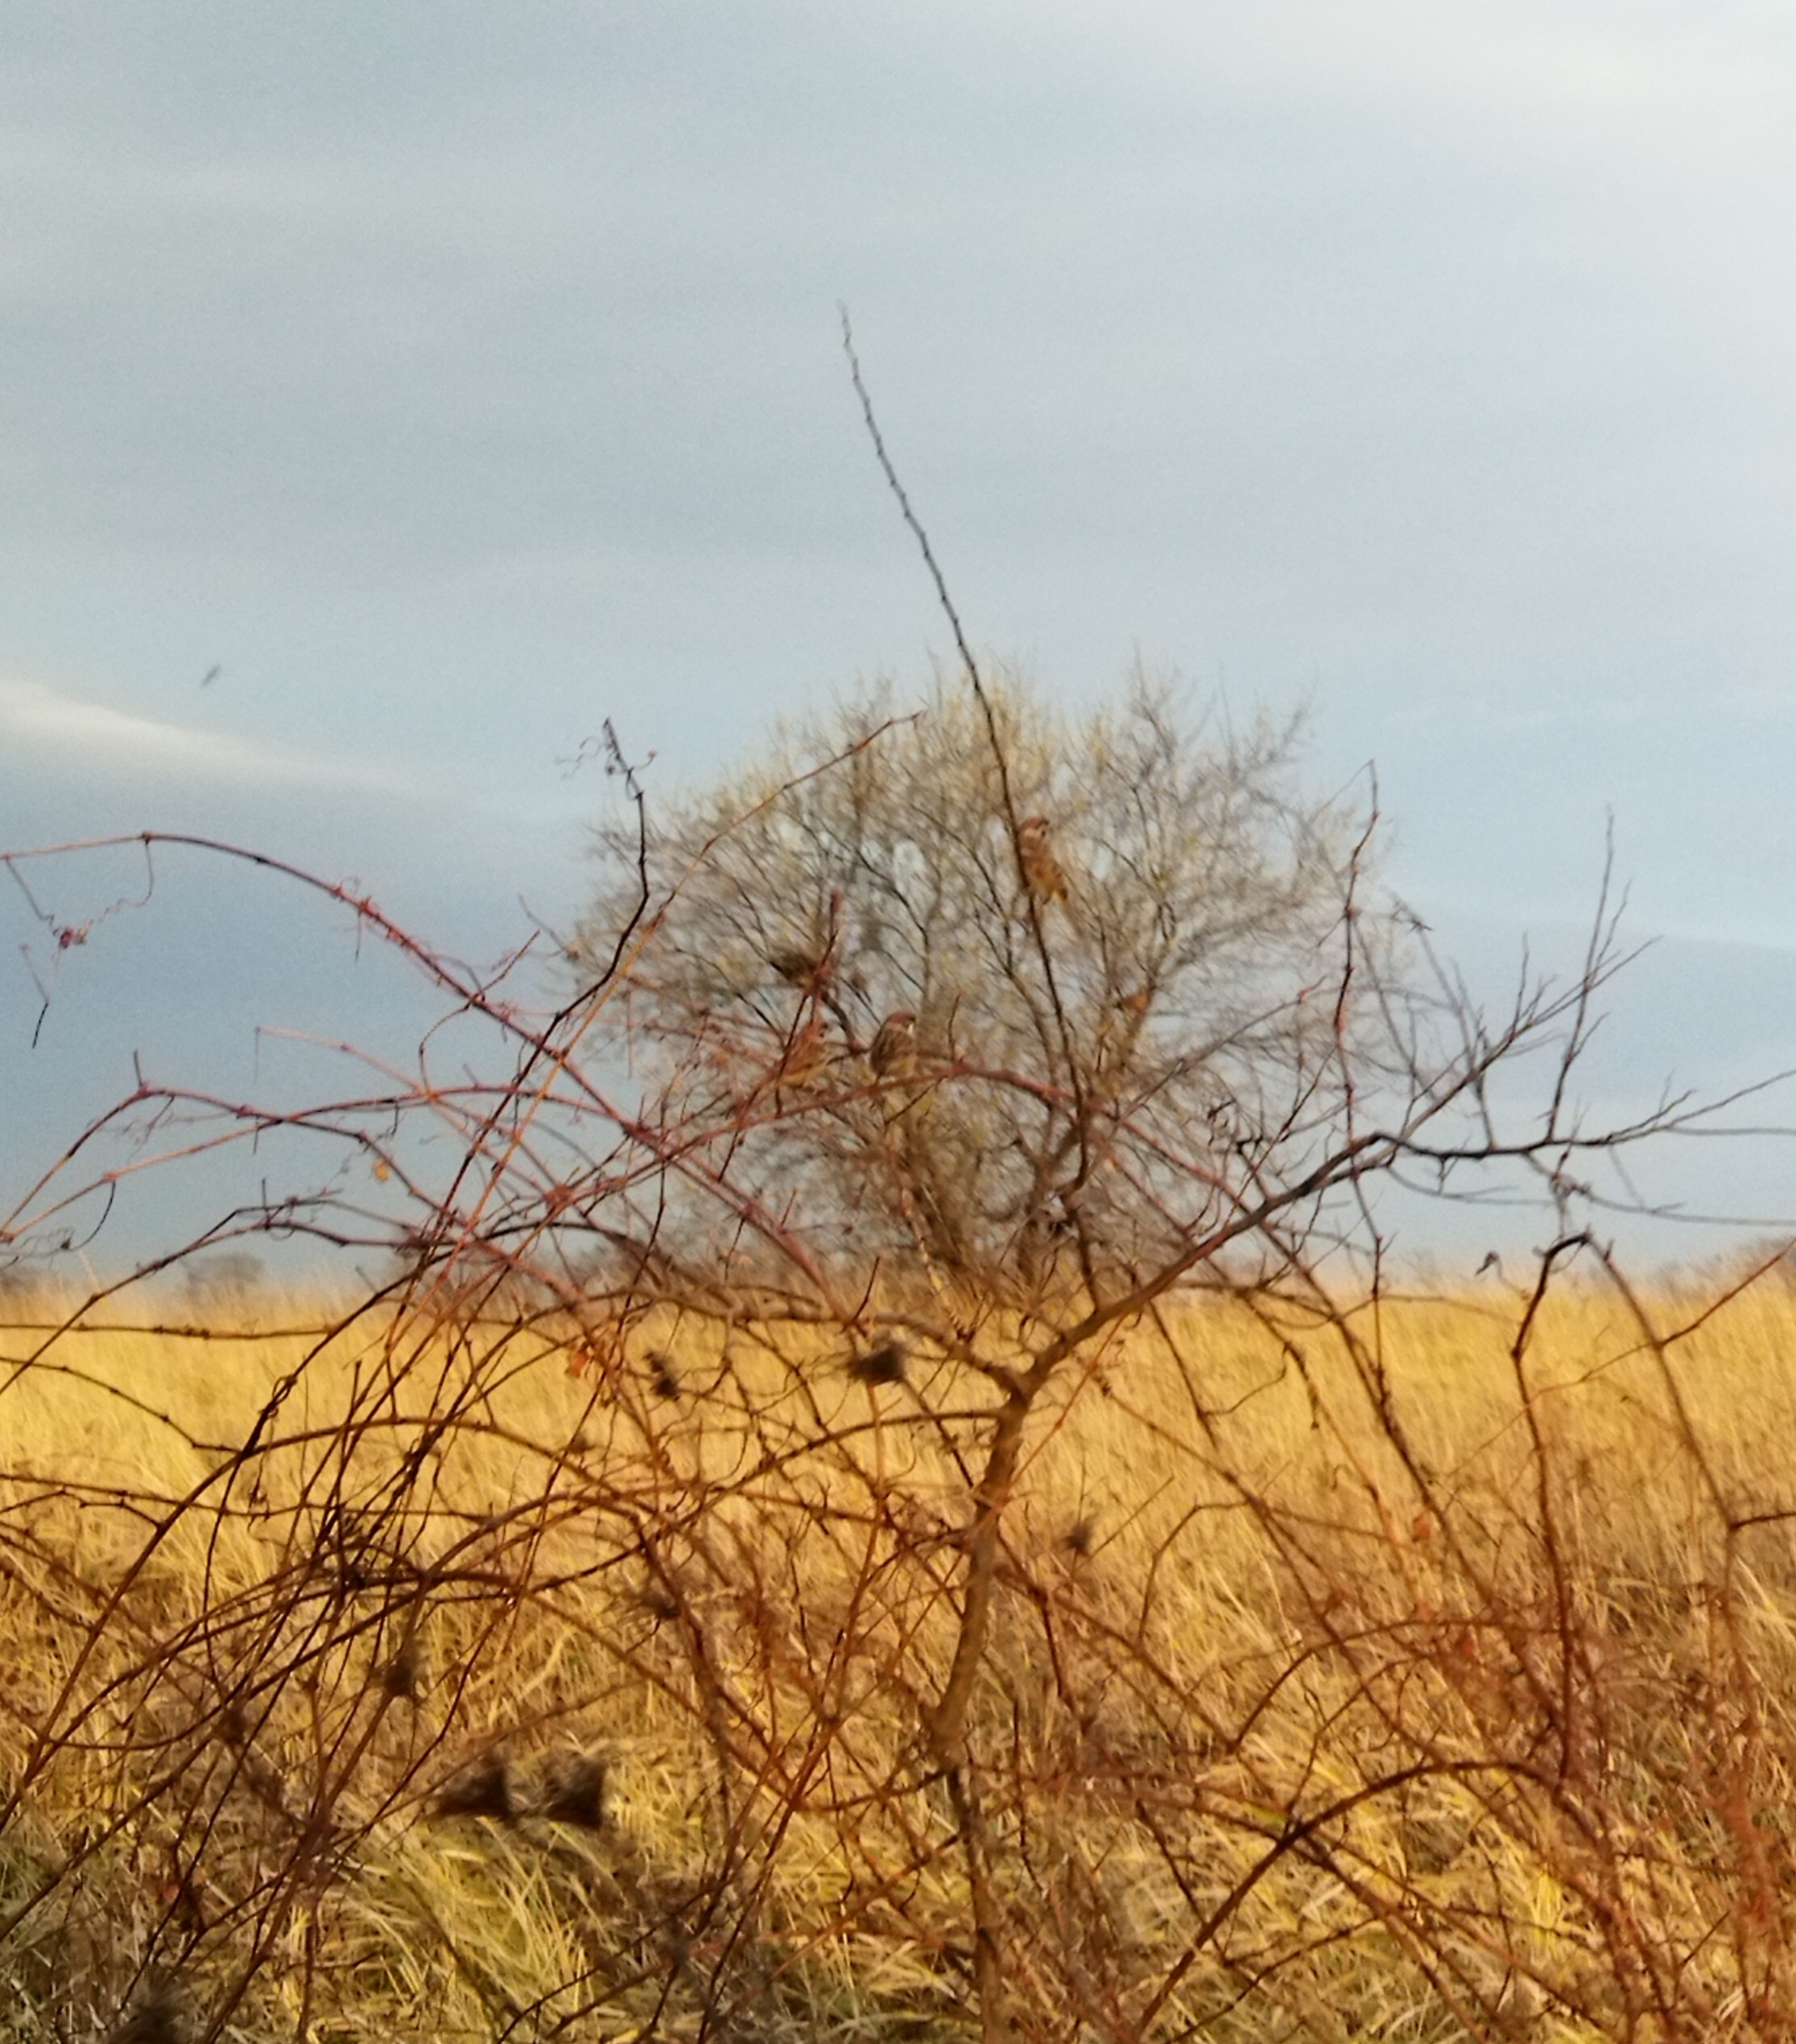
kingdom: Animalia
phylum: Chordata
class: Aves
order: Passeriformes
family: Passeridae
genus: Passer
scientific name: Passer montanus
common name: Eurasian tree sparrow
